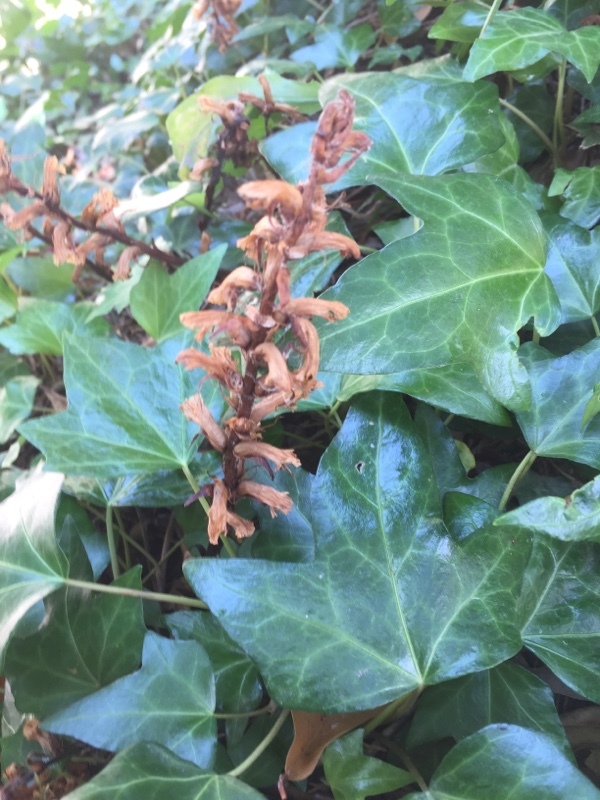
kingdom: Plantae
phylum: Tracheophyta
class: Magnoliopsida
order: Lamiales
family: Orobanchaceae
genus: Orobanche
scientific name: Orobanche hederae
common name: Ivy broomrape
